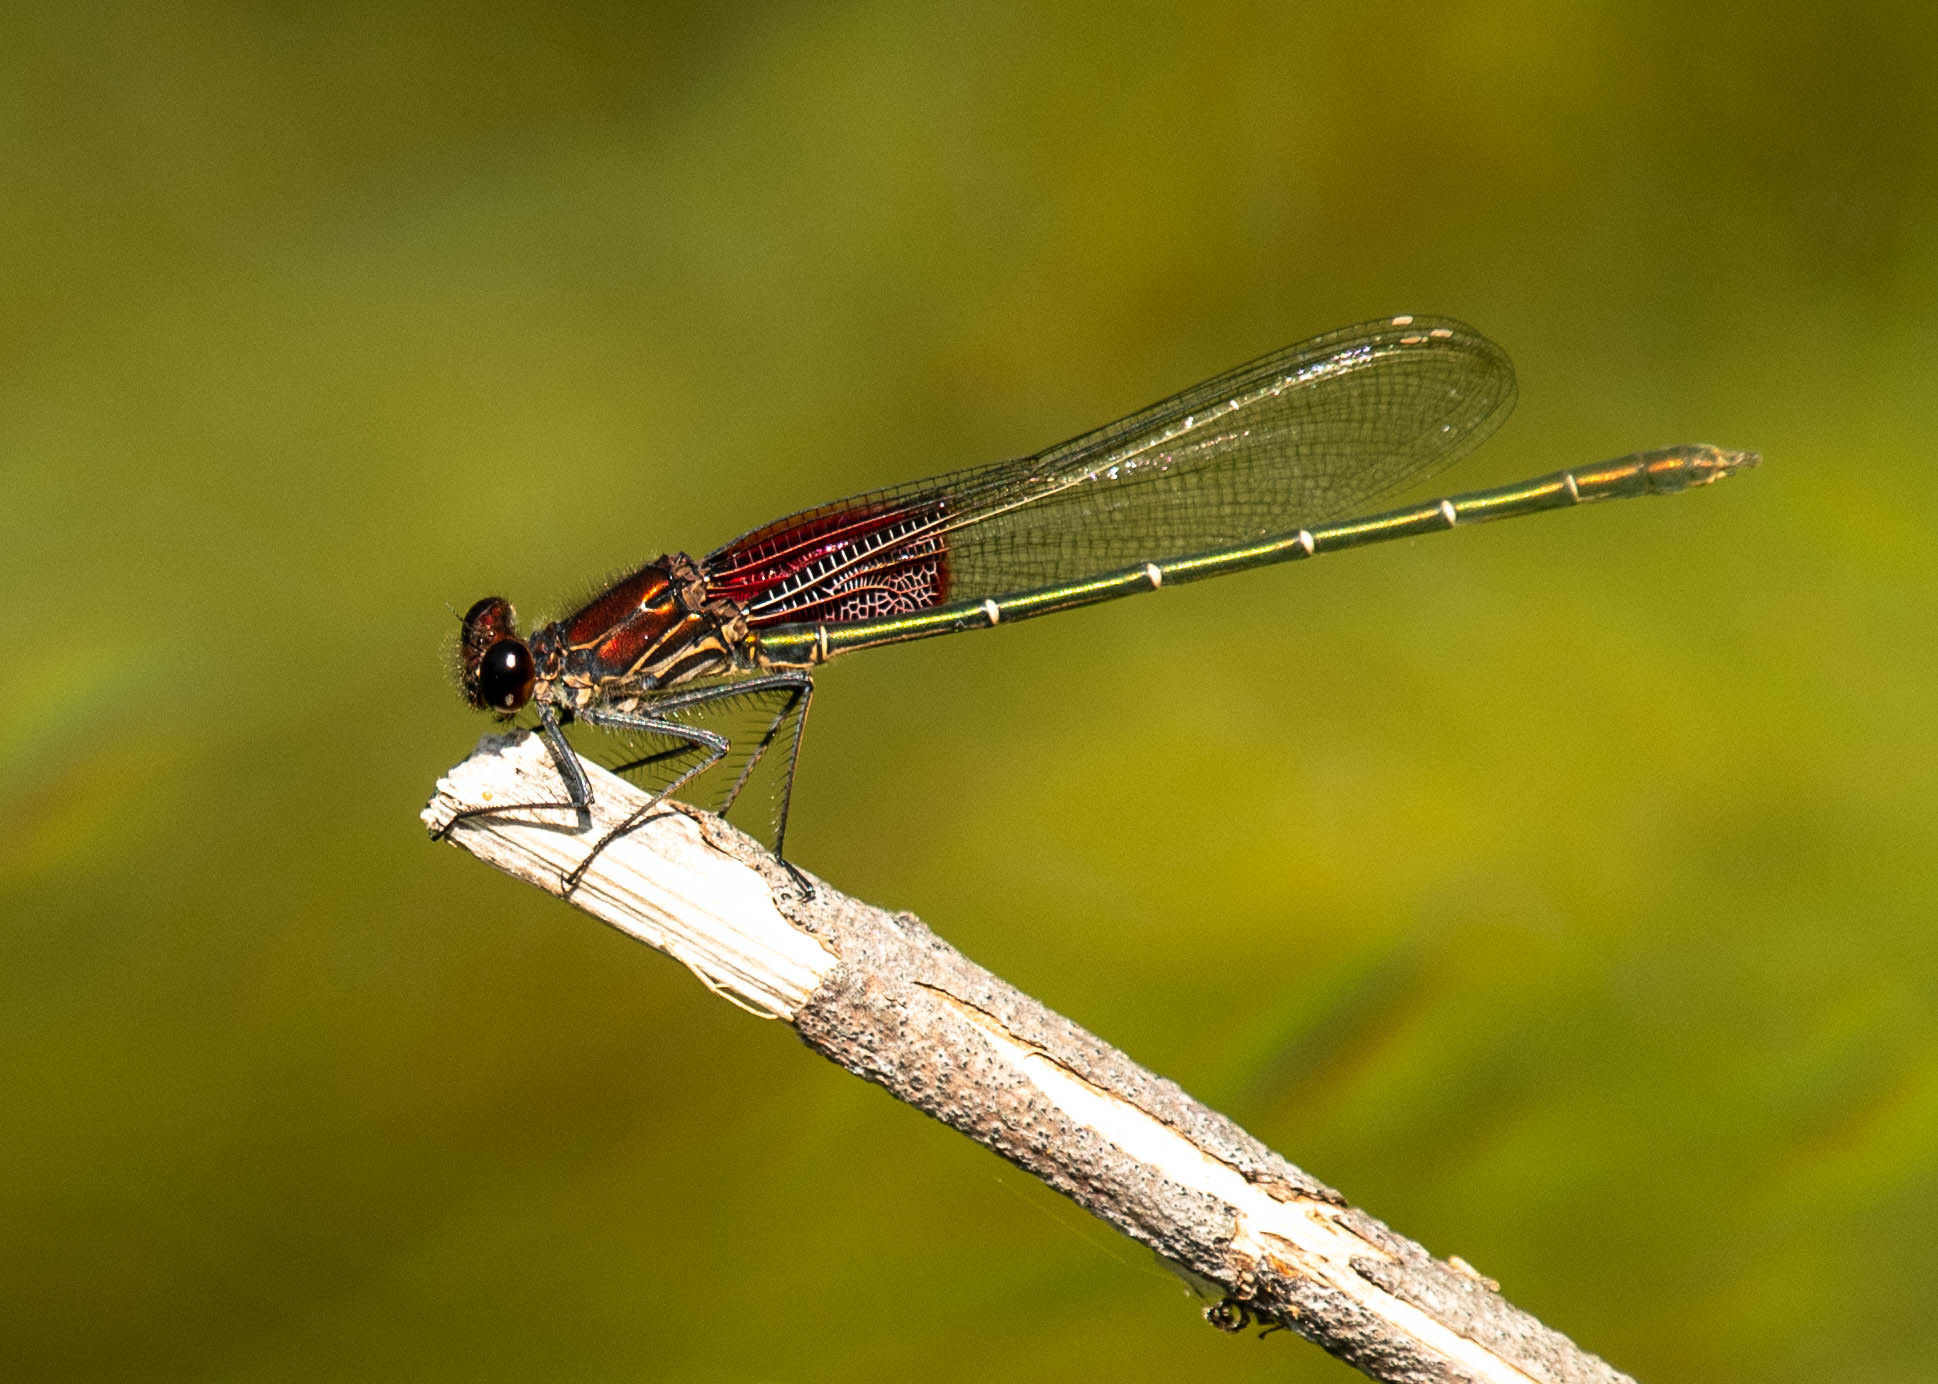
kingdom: Animalia
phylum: Arthropoda
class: Insecta
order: Odonata
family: Calopterygidae
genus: Hetaerina
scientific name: Hetaerina americana
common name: American rubyspot
